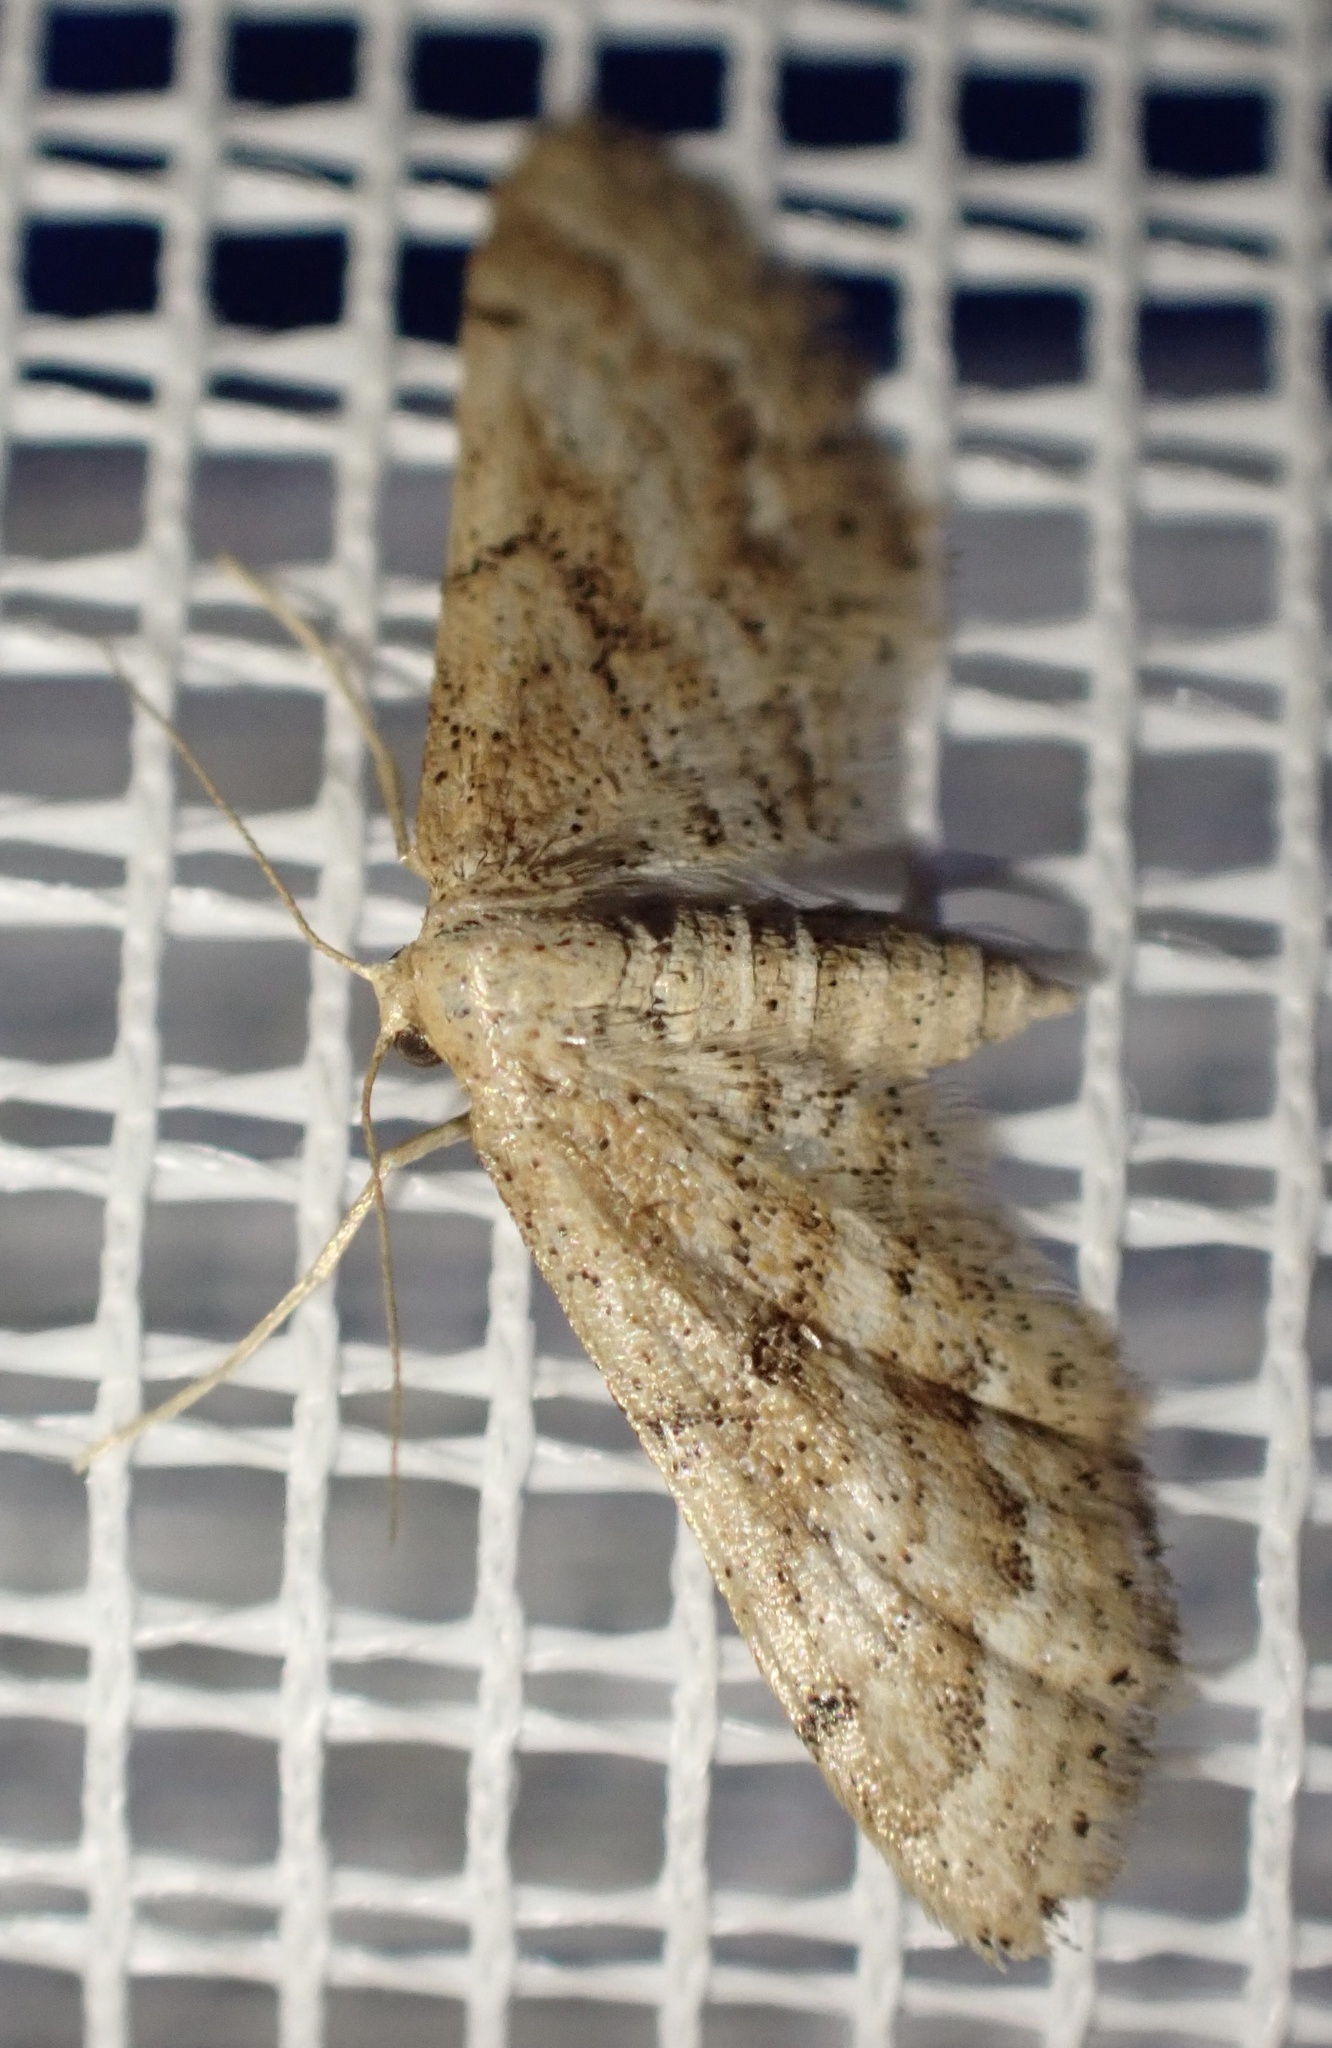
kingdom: Animalia
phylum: Arthropoda
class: Insecta
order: Lepidoptera
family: Geometridae
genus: Idaea
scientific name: Idaea fractilineata
